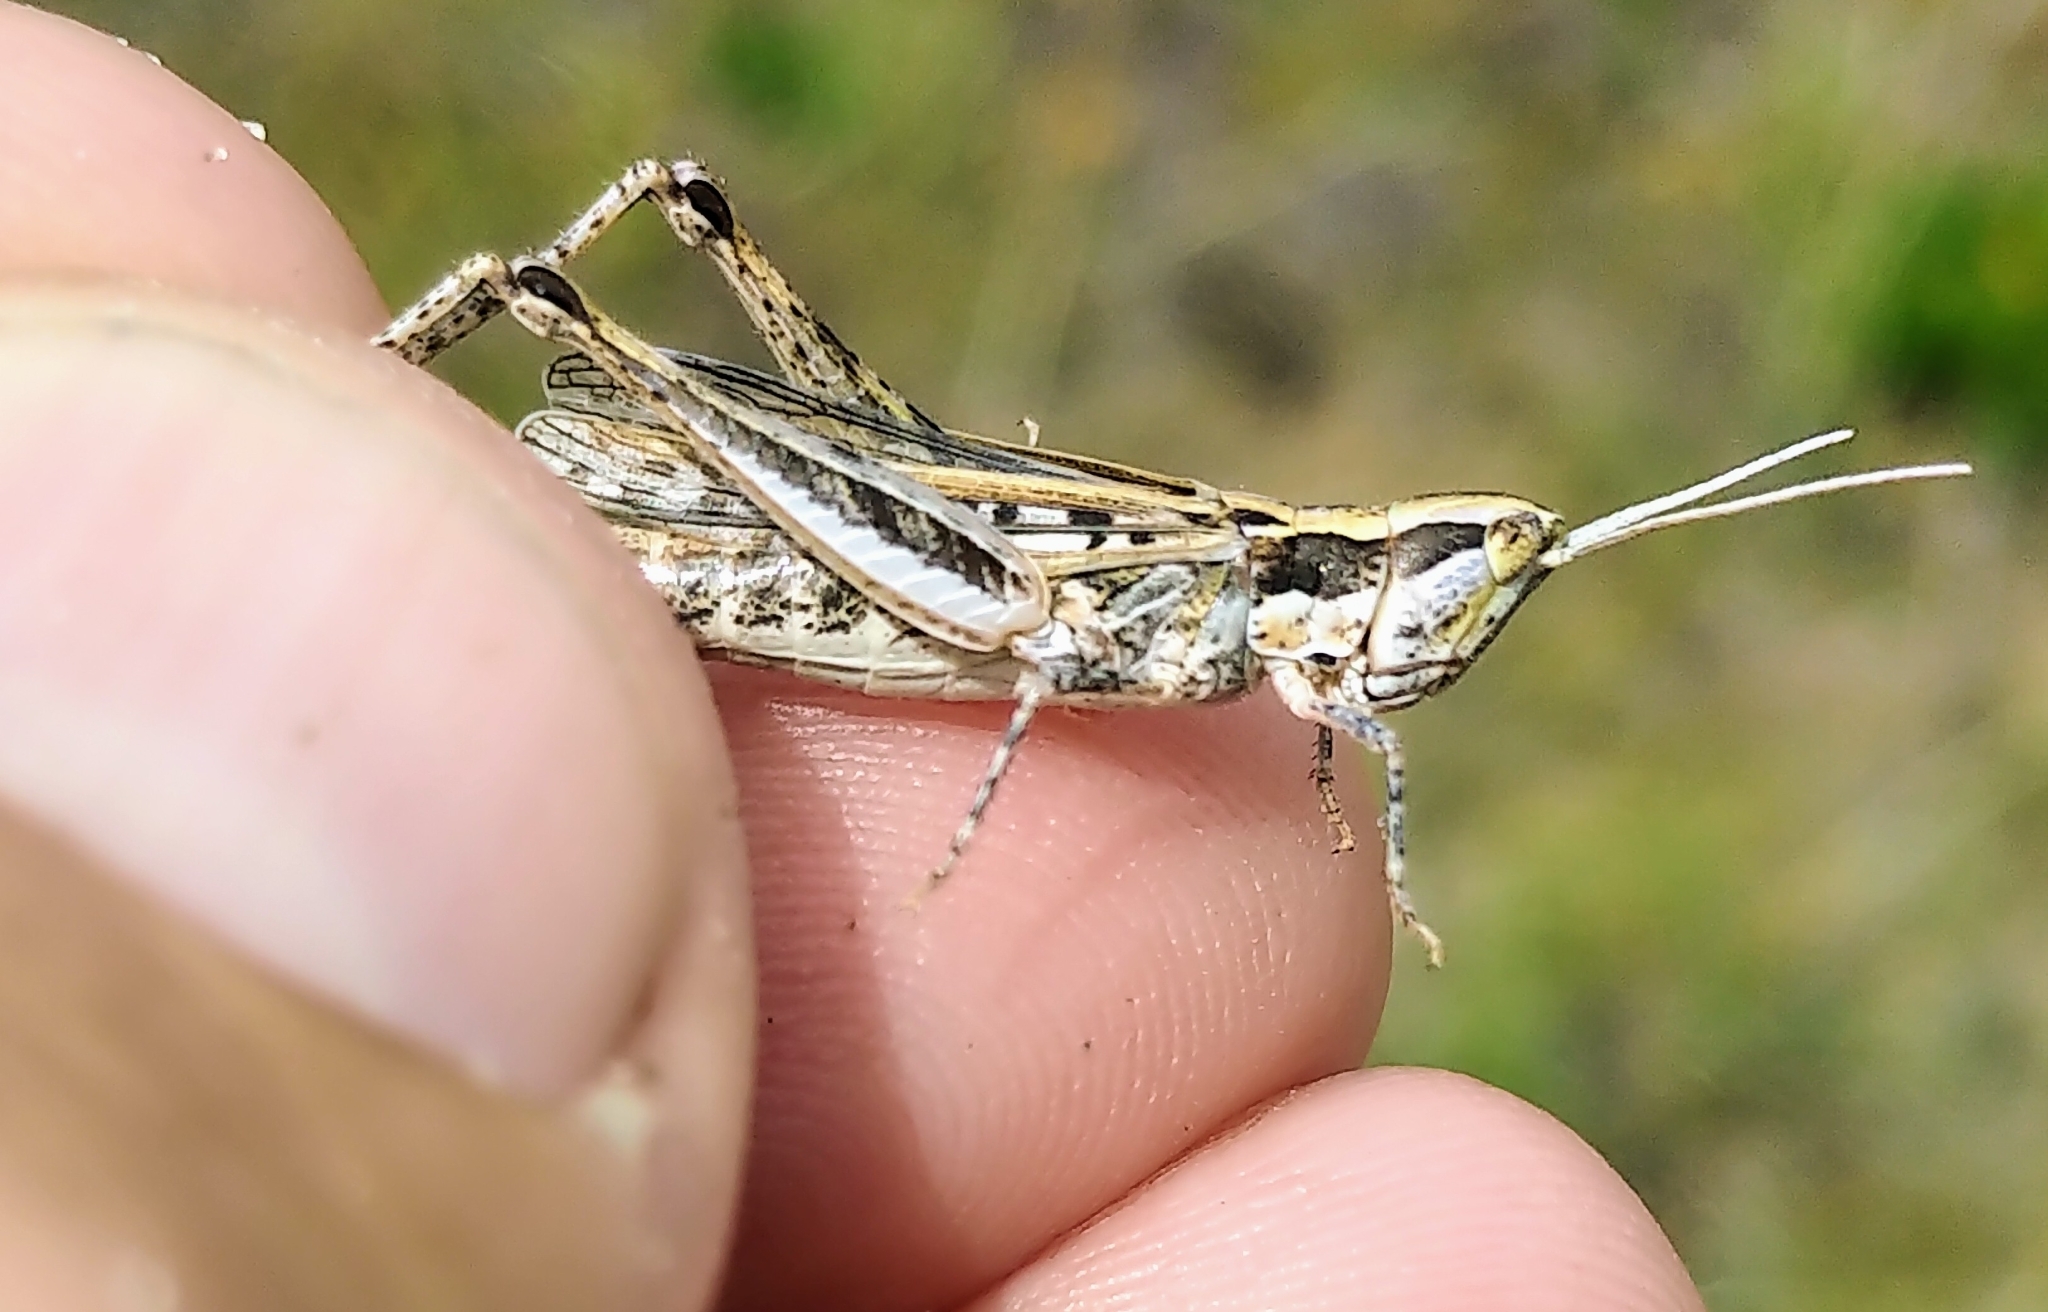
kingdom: Animalia
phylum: Arthropoda
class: Insecta
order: Orthoptera
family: Acrididae
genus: Cordillacris
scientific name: Cordillacris occipitalis
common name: Spotted-winged grasshopper
